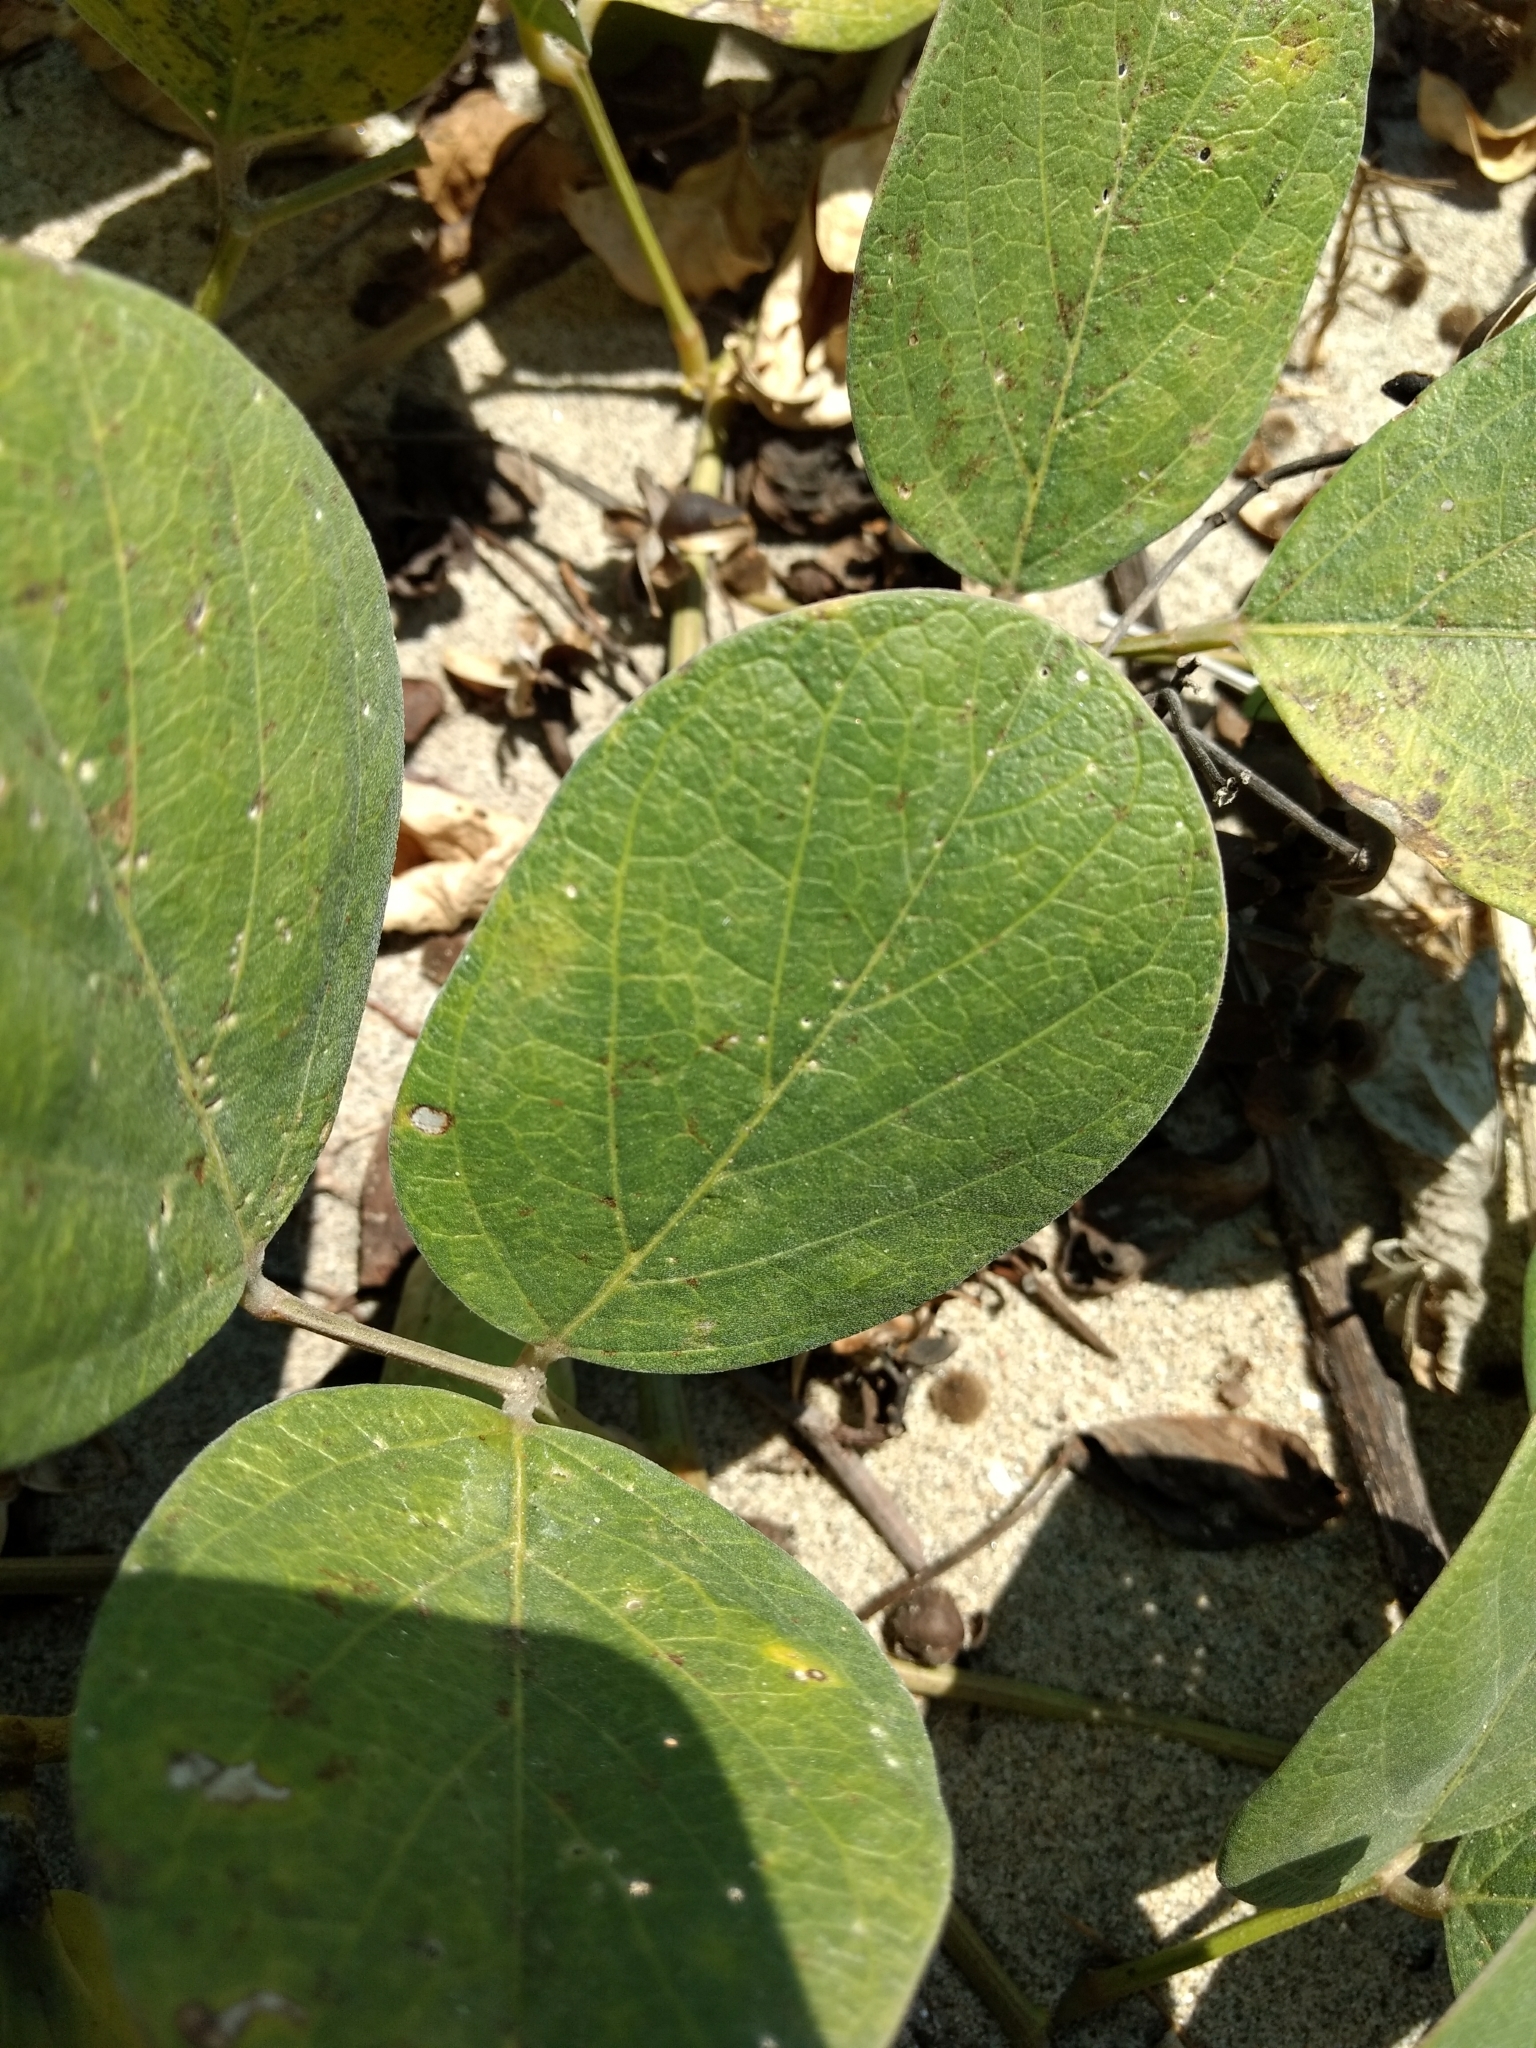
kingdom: Plantae
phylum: Tracheophyta
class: Magnoliopsida
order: Fabales
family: Fabaceae
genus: Canavalia
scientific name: Canavalia rosea
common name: Beach-bean
